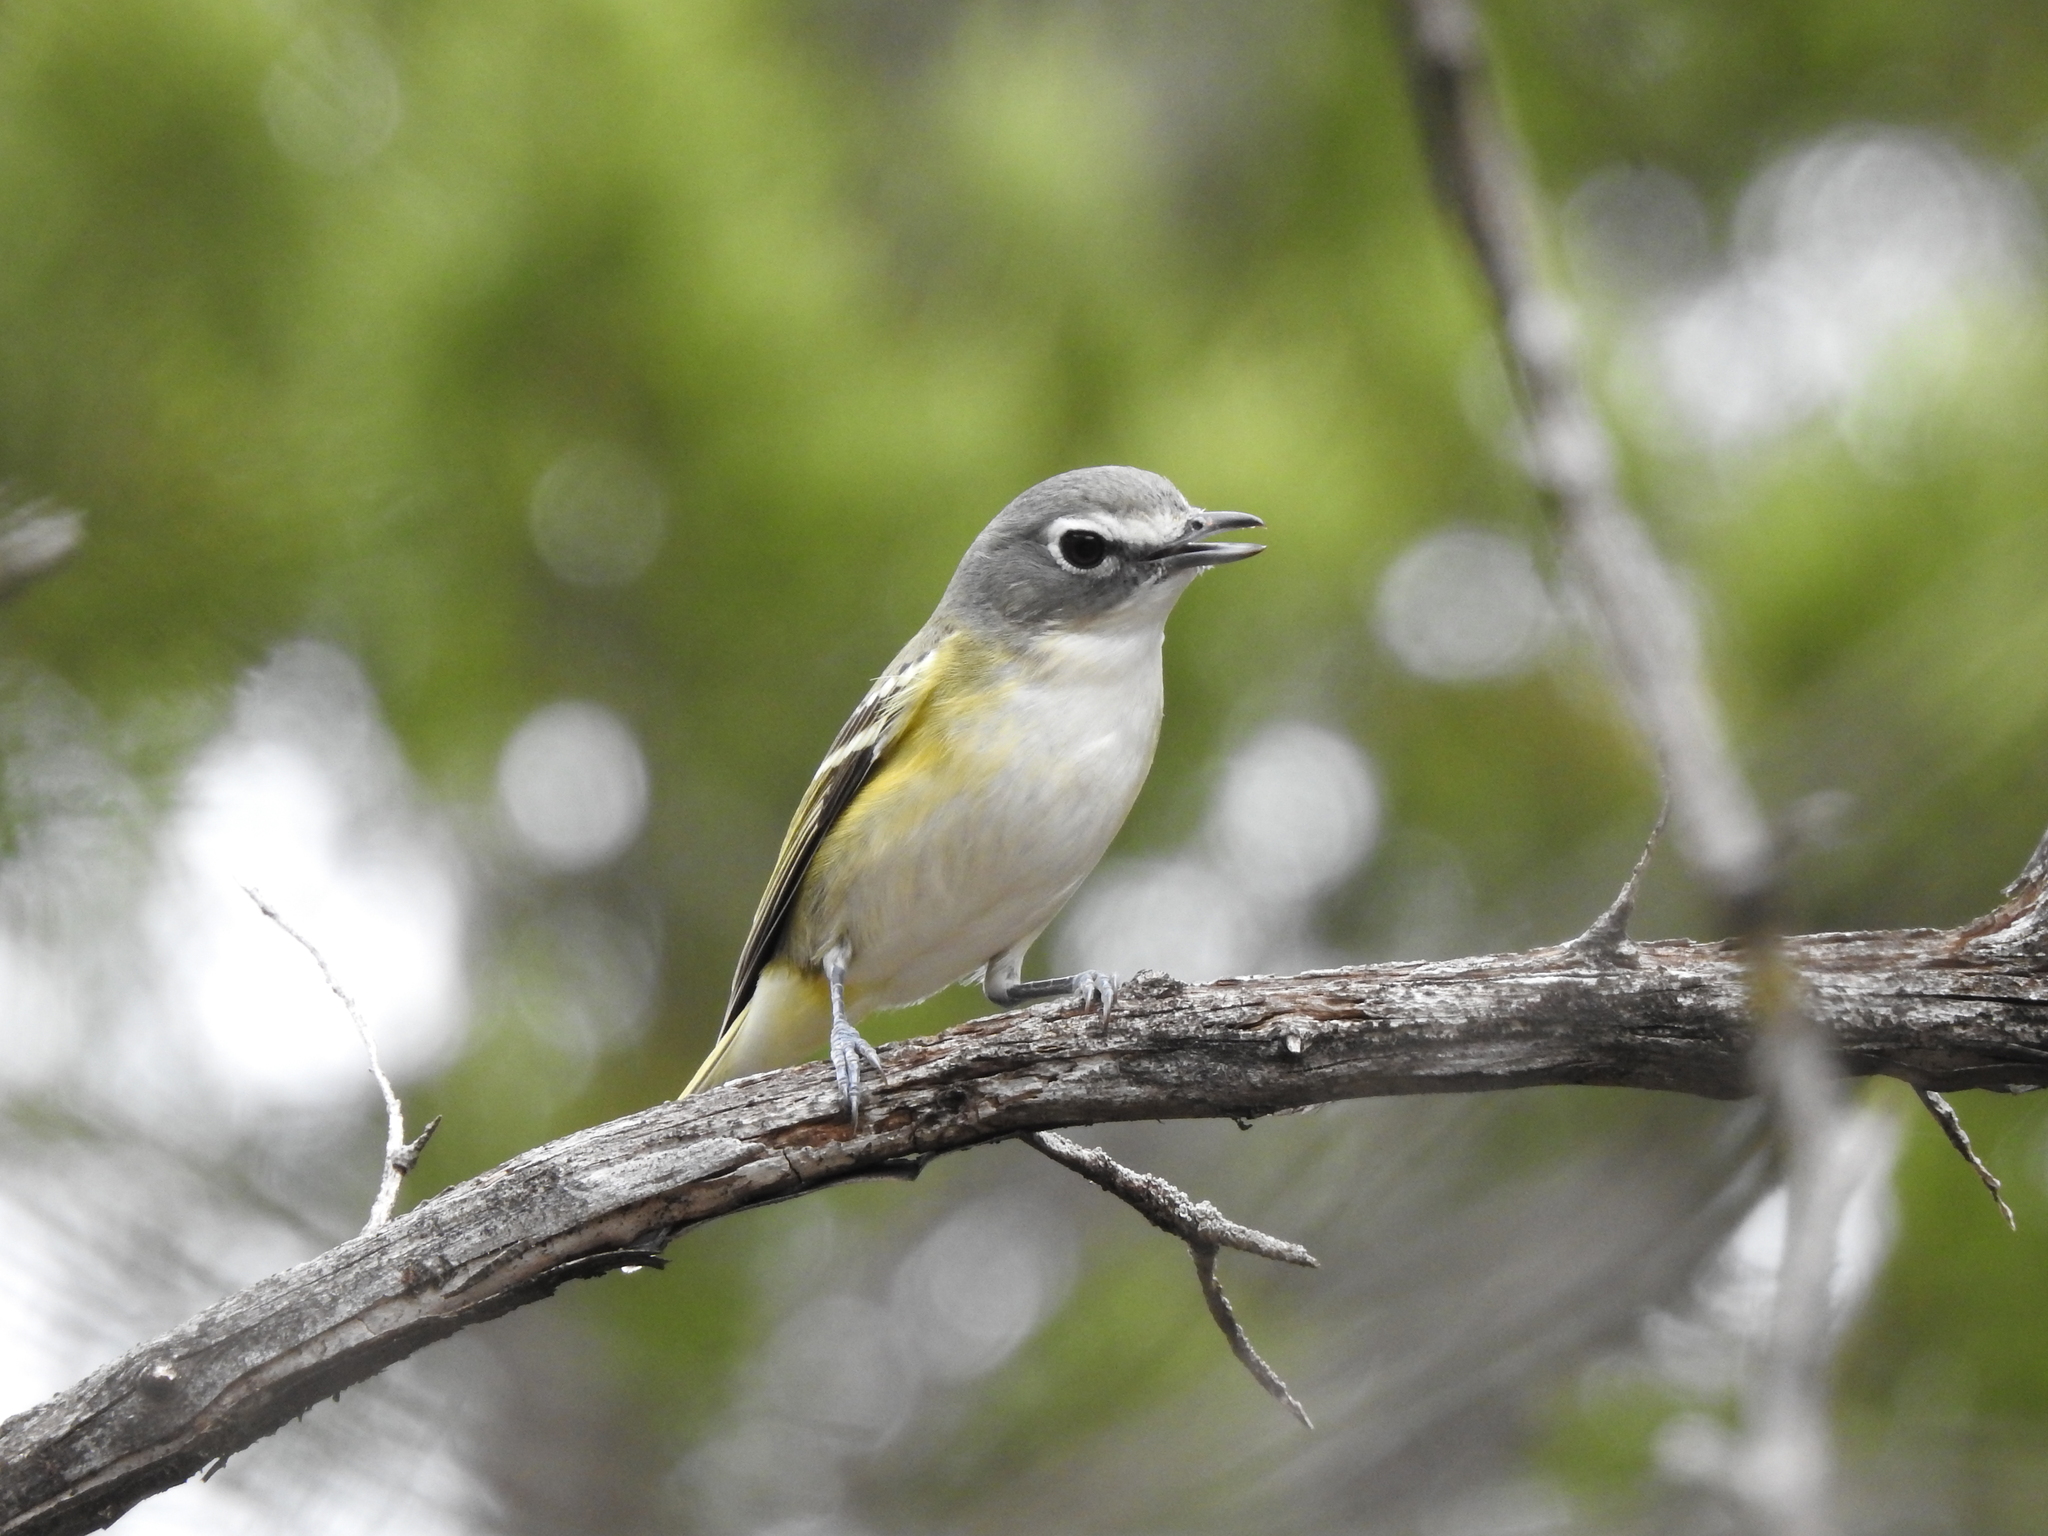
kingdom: Animalia
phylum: Chordata
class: Aves
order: Passeriformes
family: Vireonidae
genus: Vireo
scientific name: Vireo solitarius
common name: Blue-headed vireo
